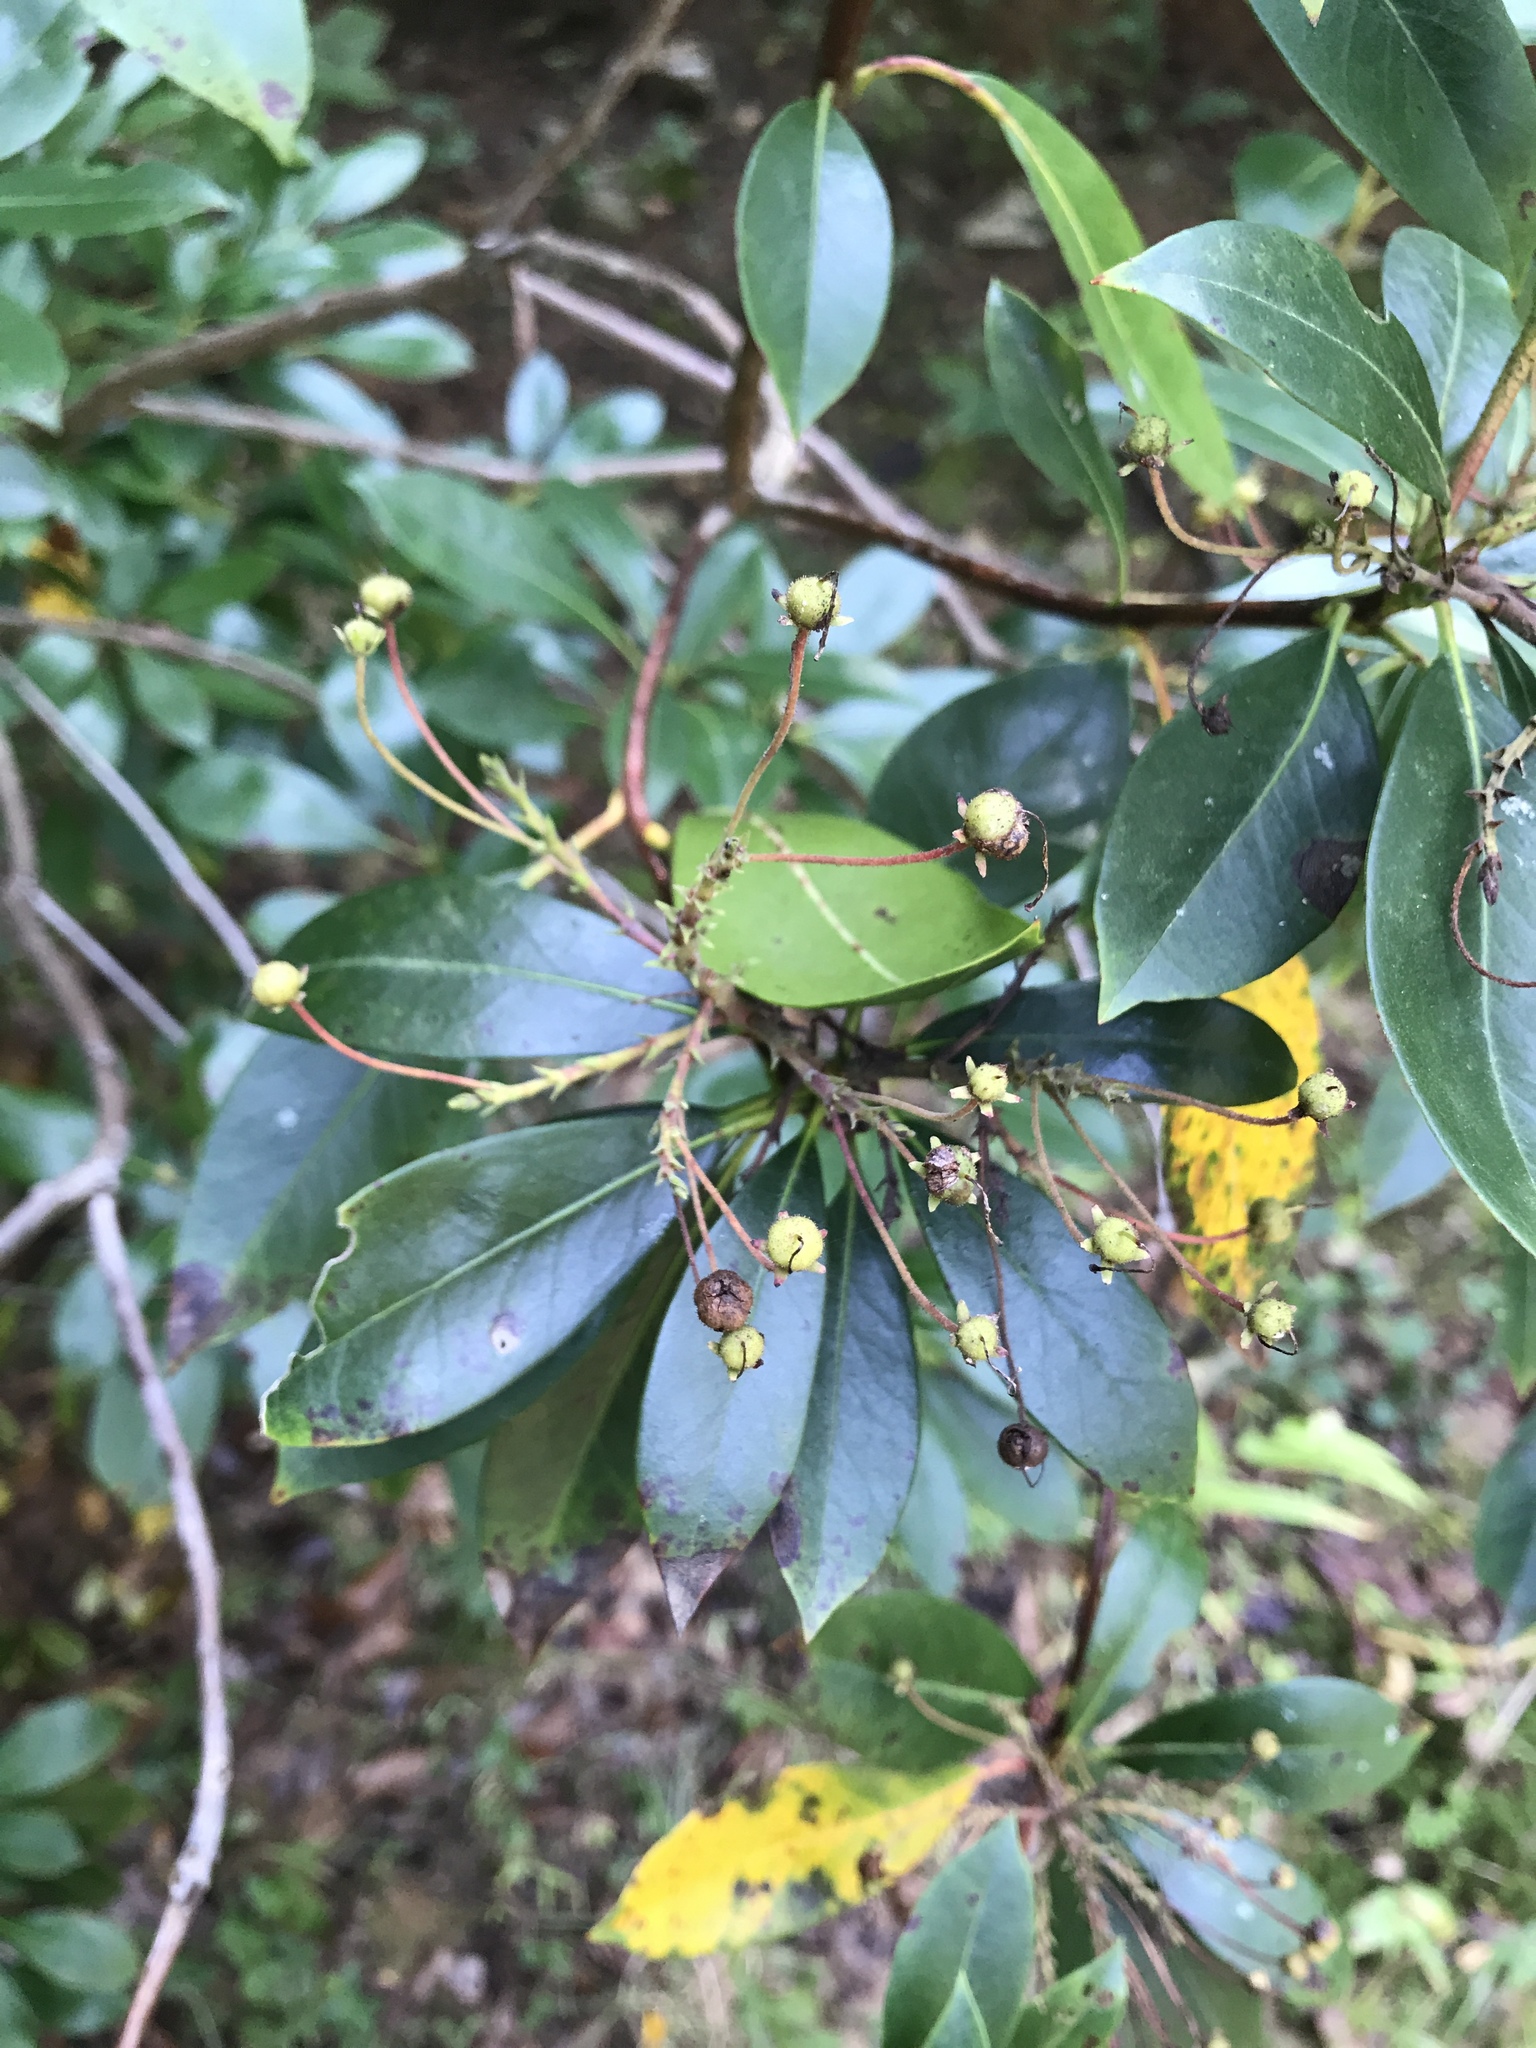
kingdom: Plantae
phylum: Tracheophyta
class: Magnoliopsida
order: Ericales
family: Ericaceae
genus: Kalmia
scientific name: Kalmia latifolia
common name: Mountain-laurel
